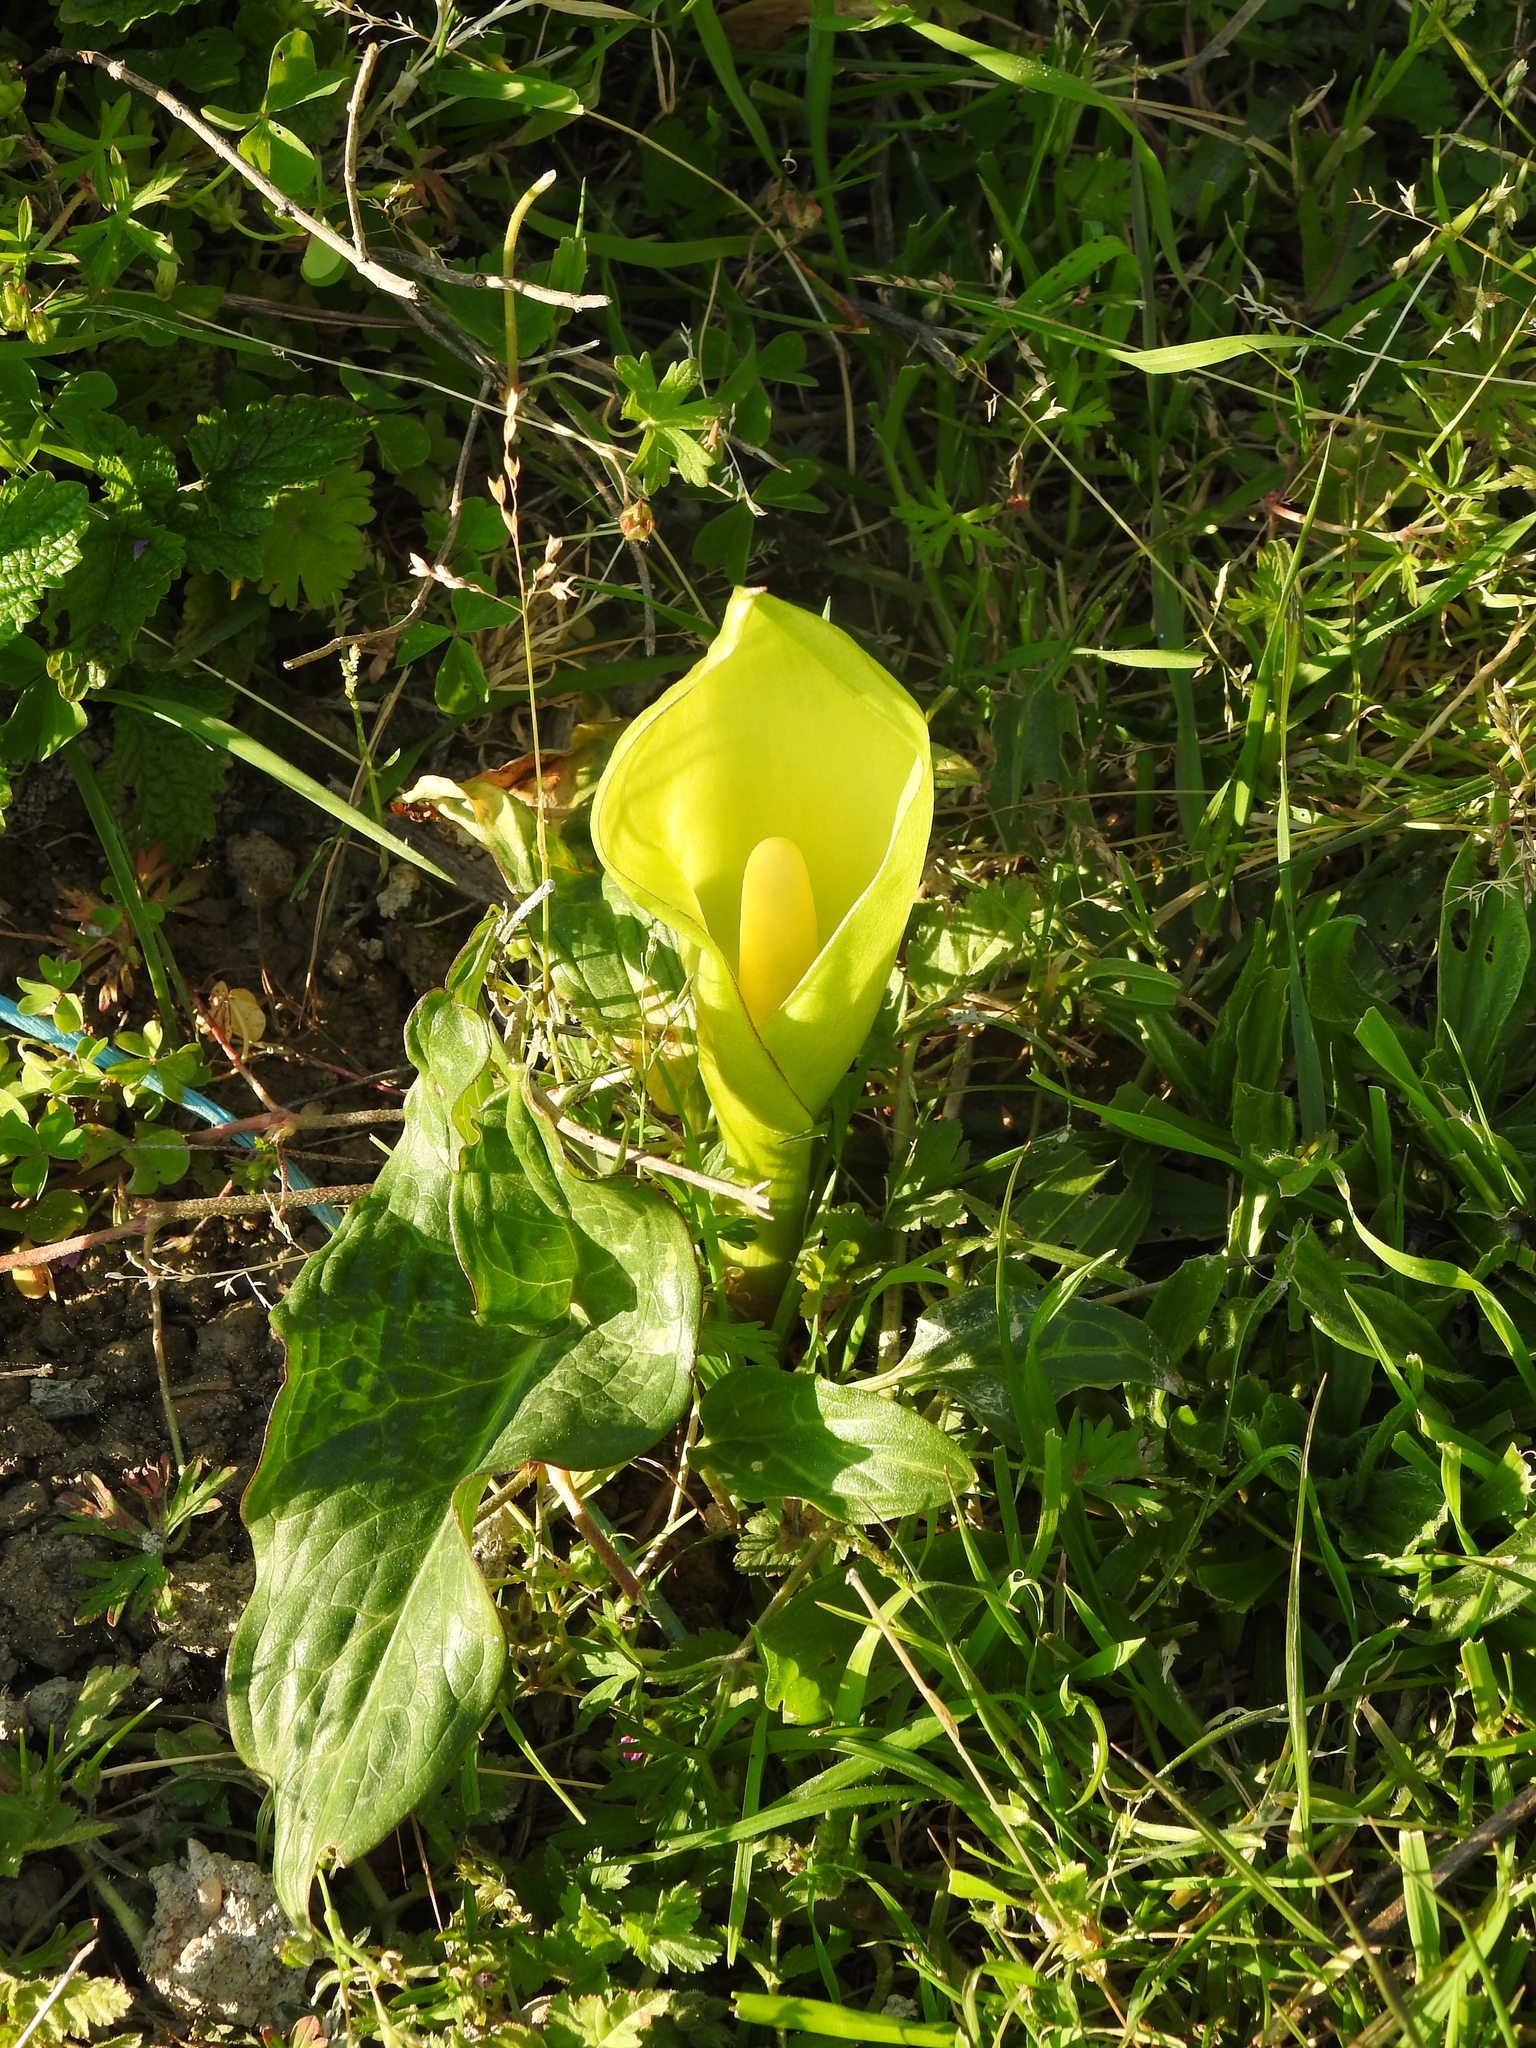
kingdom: Plantae
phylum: Tracheophyta
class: Liliopsida
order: Alismatales
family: Araceae
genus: Arum
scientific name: Arum italicum
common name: Italian lords-and-ladies
